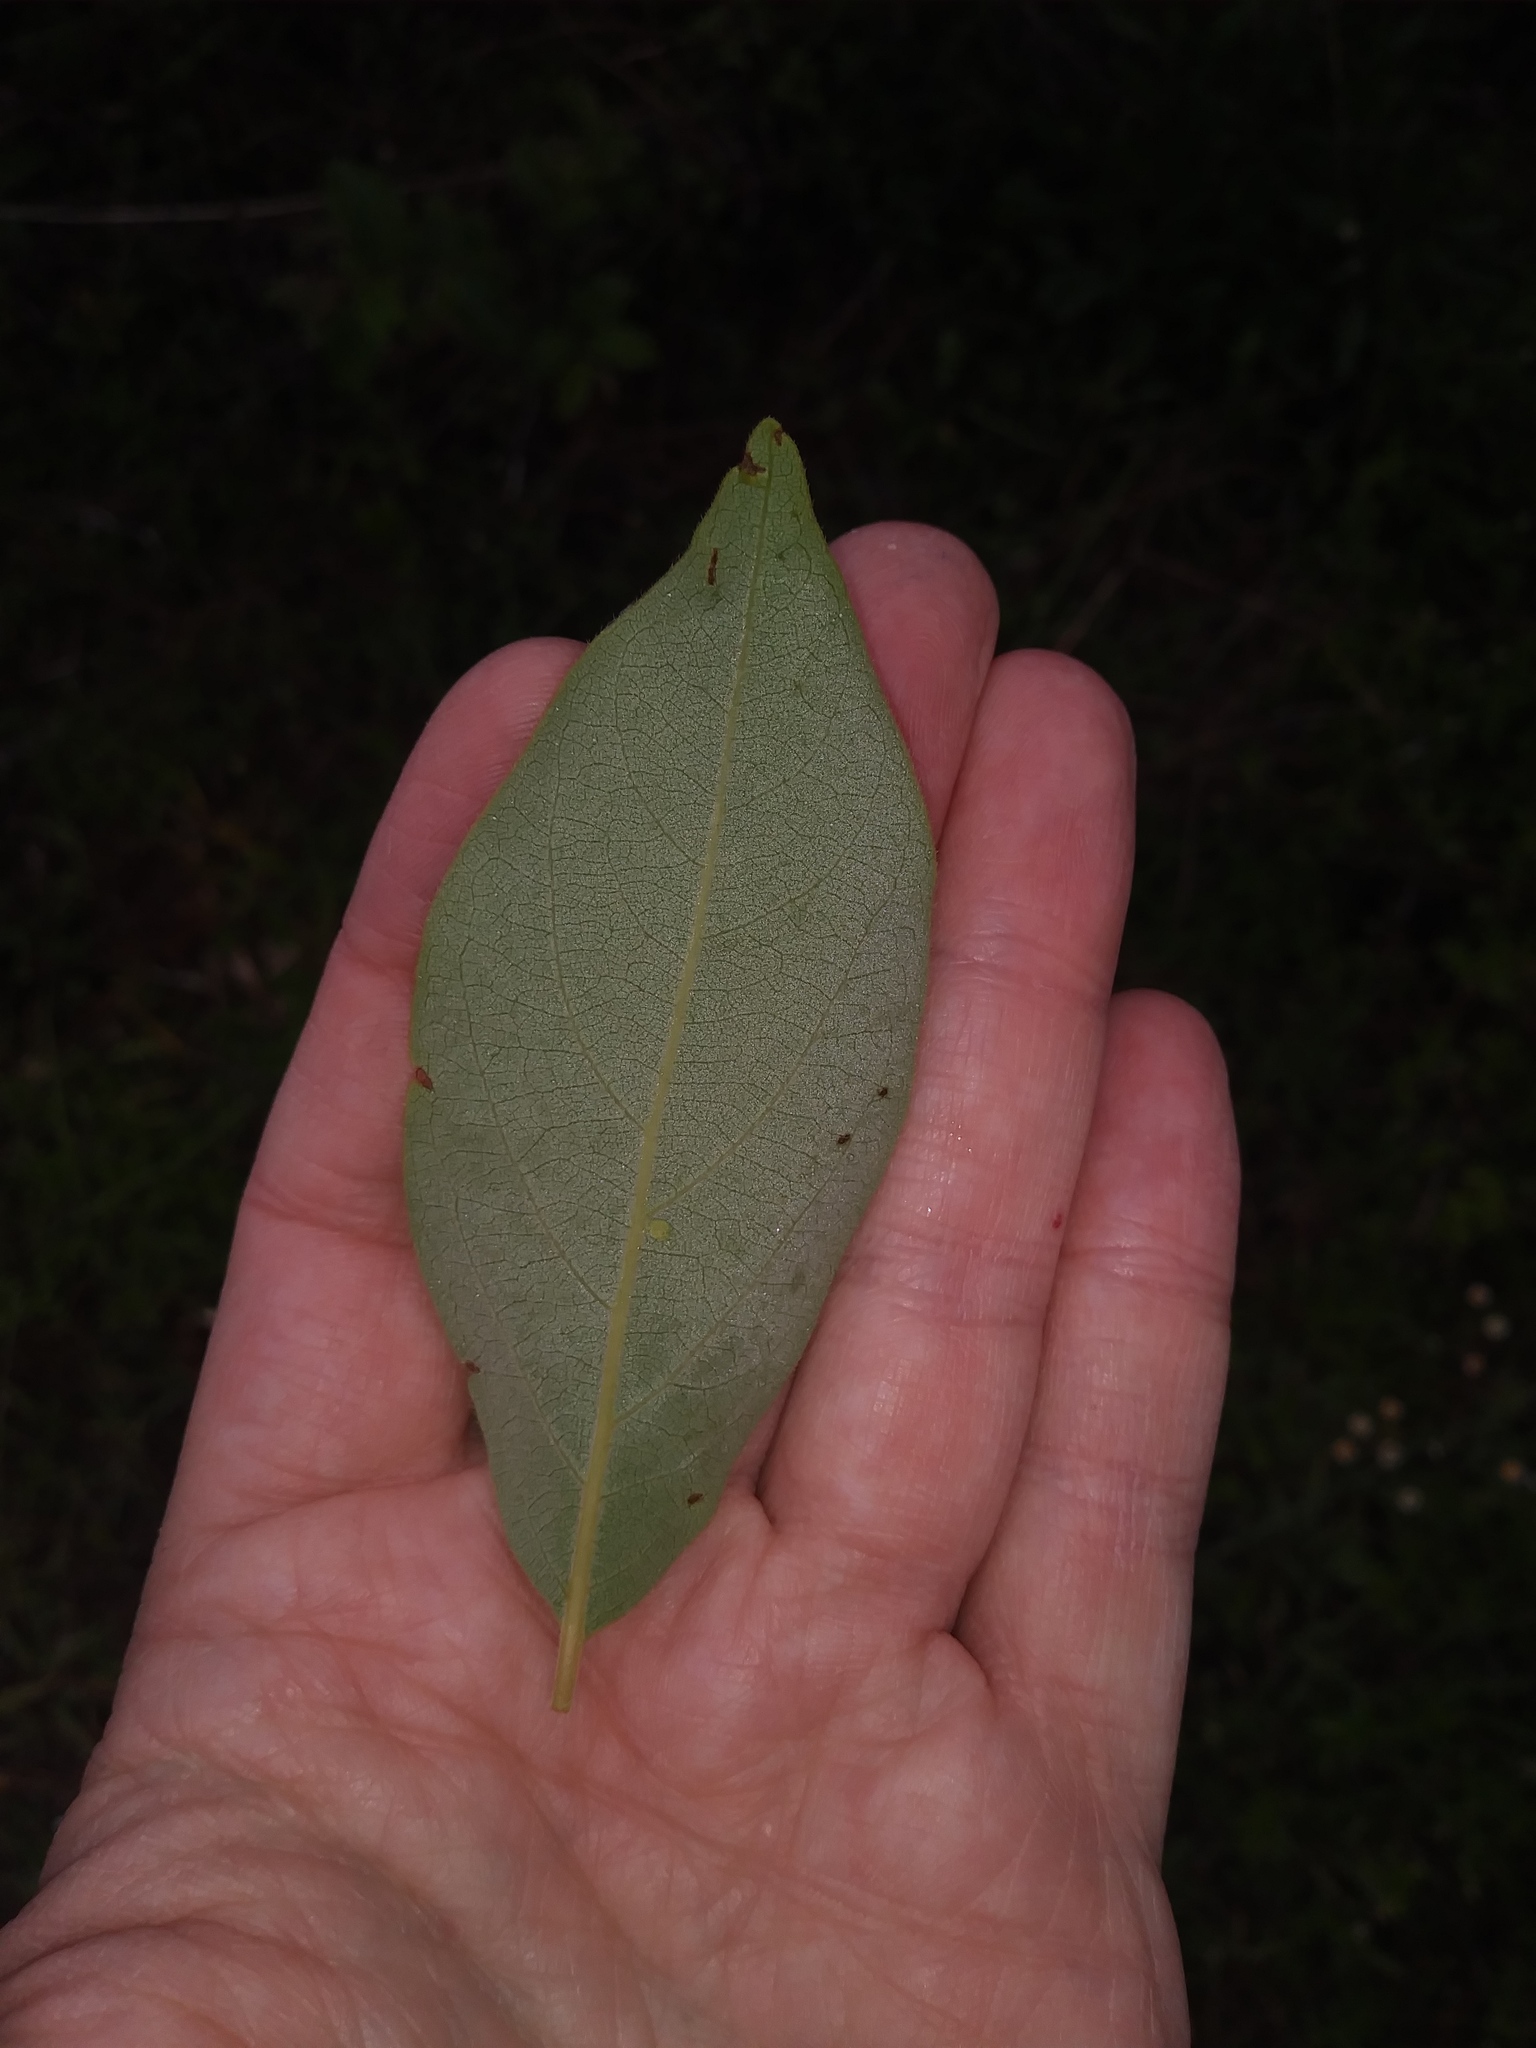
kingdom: Plantae
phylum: Tracheophyta
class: Magnoliopsida
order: Ericales
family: Ebenaceae
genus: Diospyros
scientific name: Diospyros virginiana
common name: Persimmon
